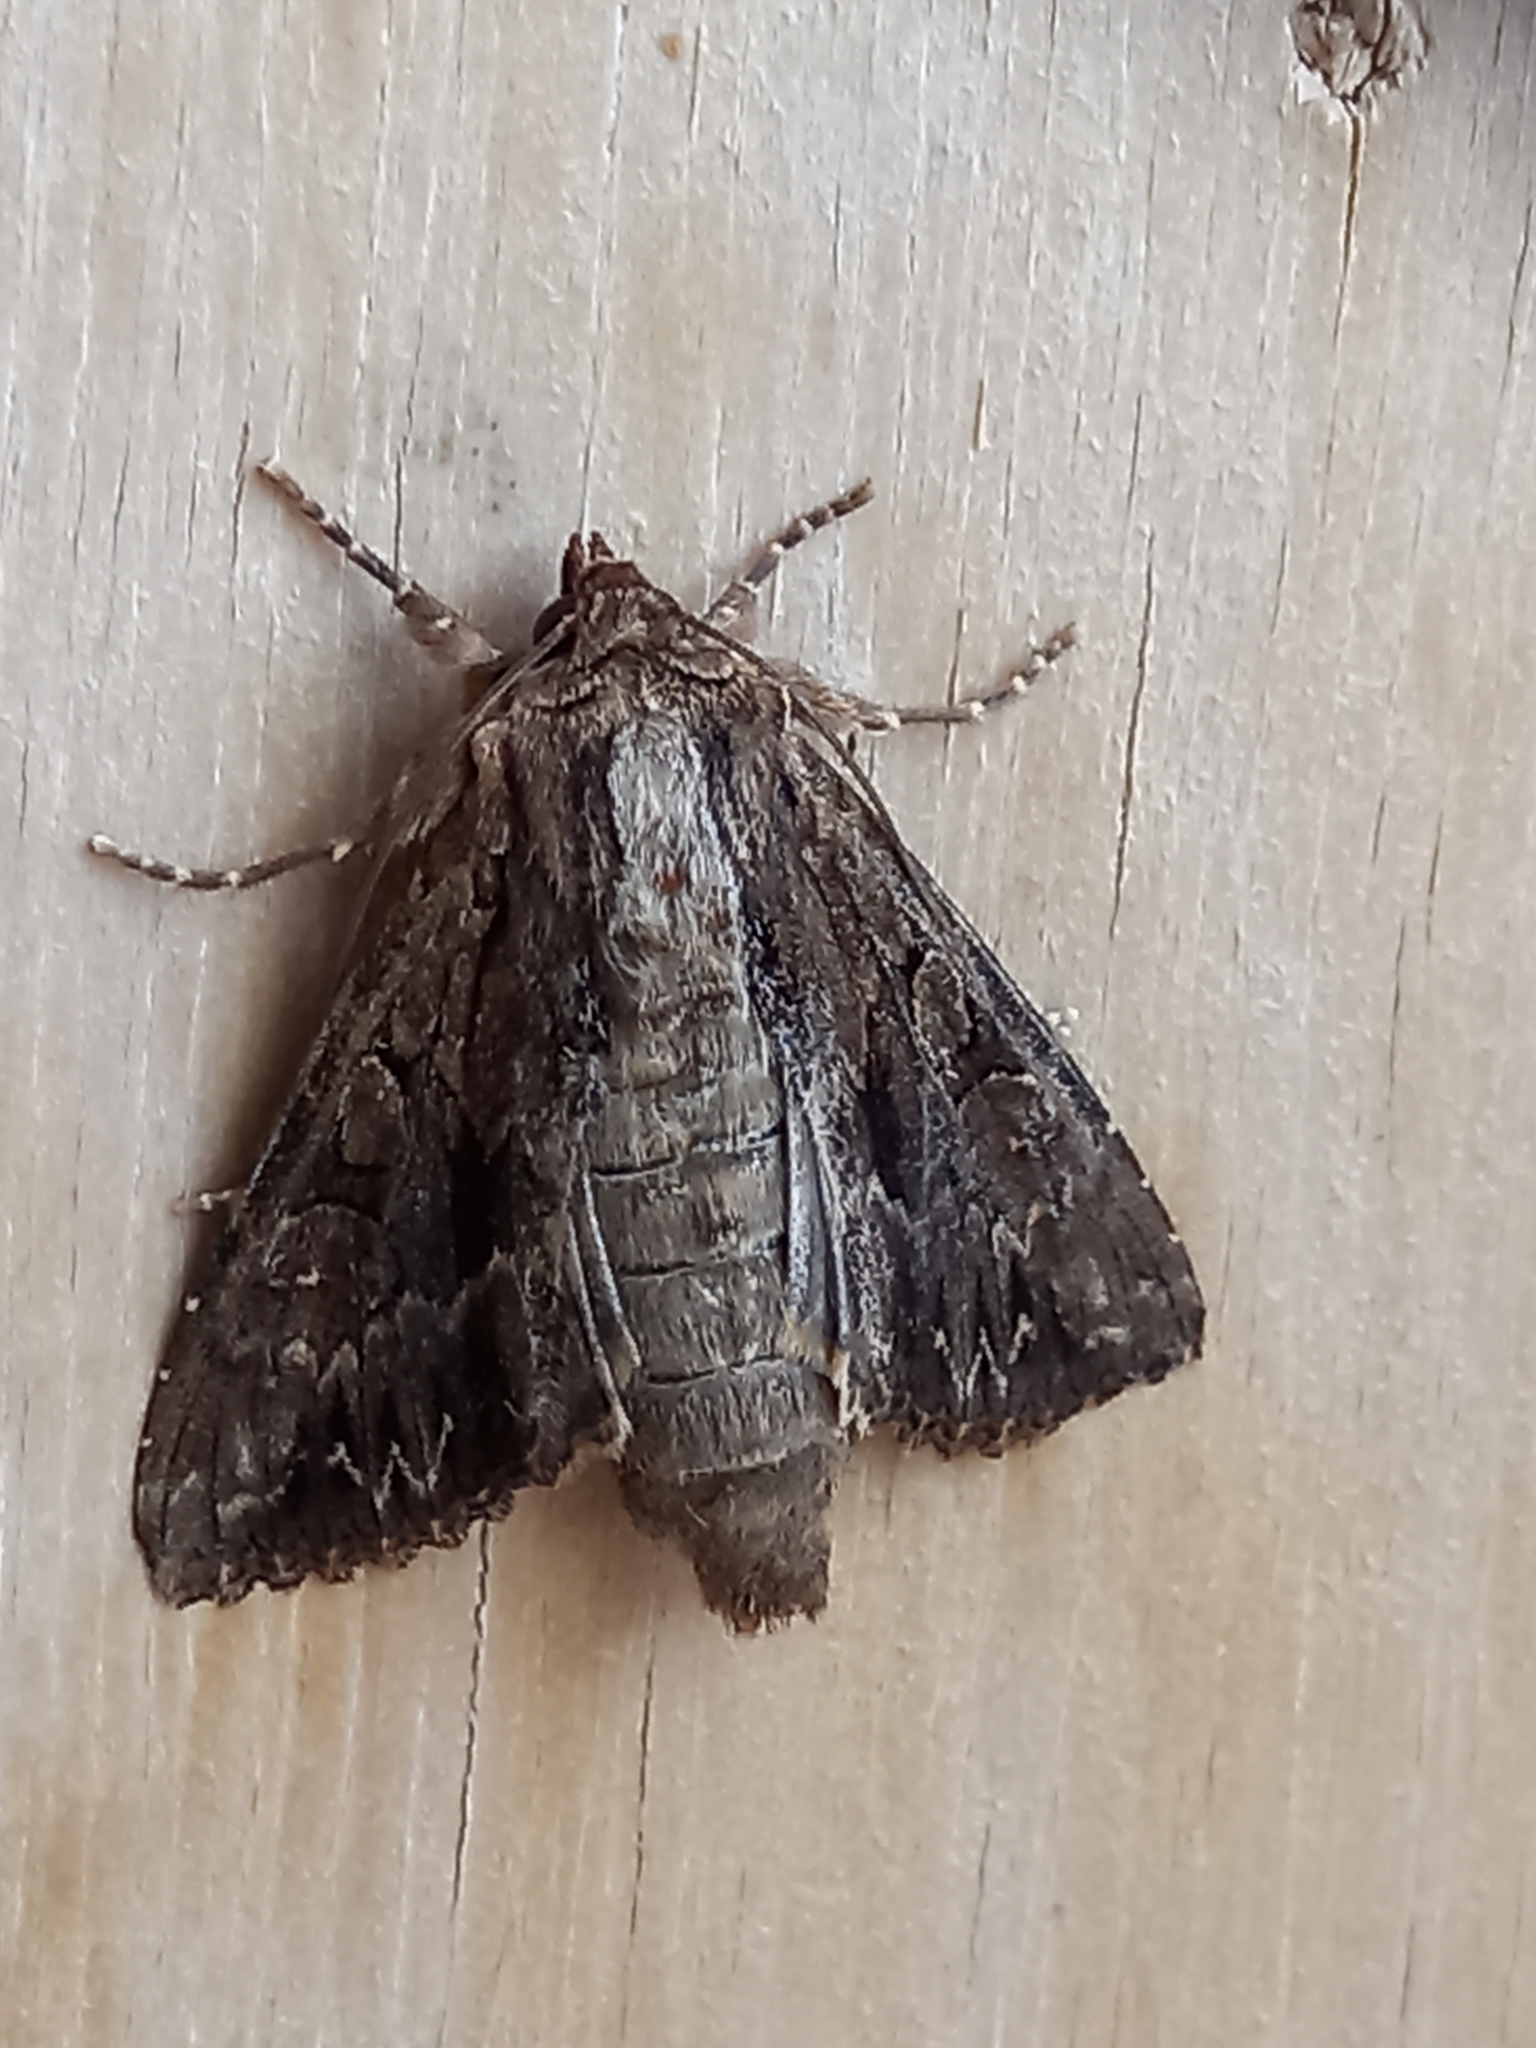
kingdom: Animalia
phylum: Arthropoda
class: Insecta
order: Lepidoptera
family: Noctuidae
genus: Apamea
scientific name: Apamea monoglypha
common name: Dark arches
